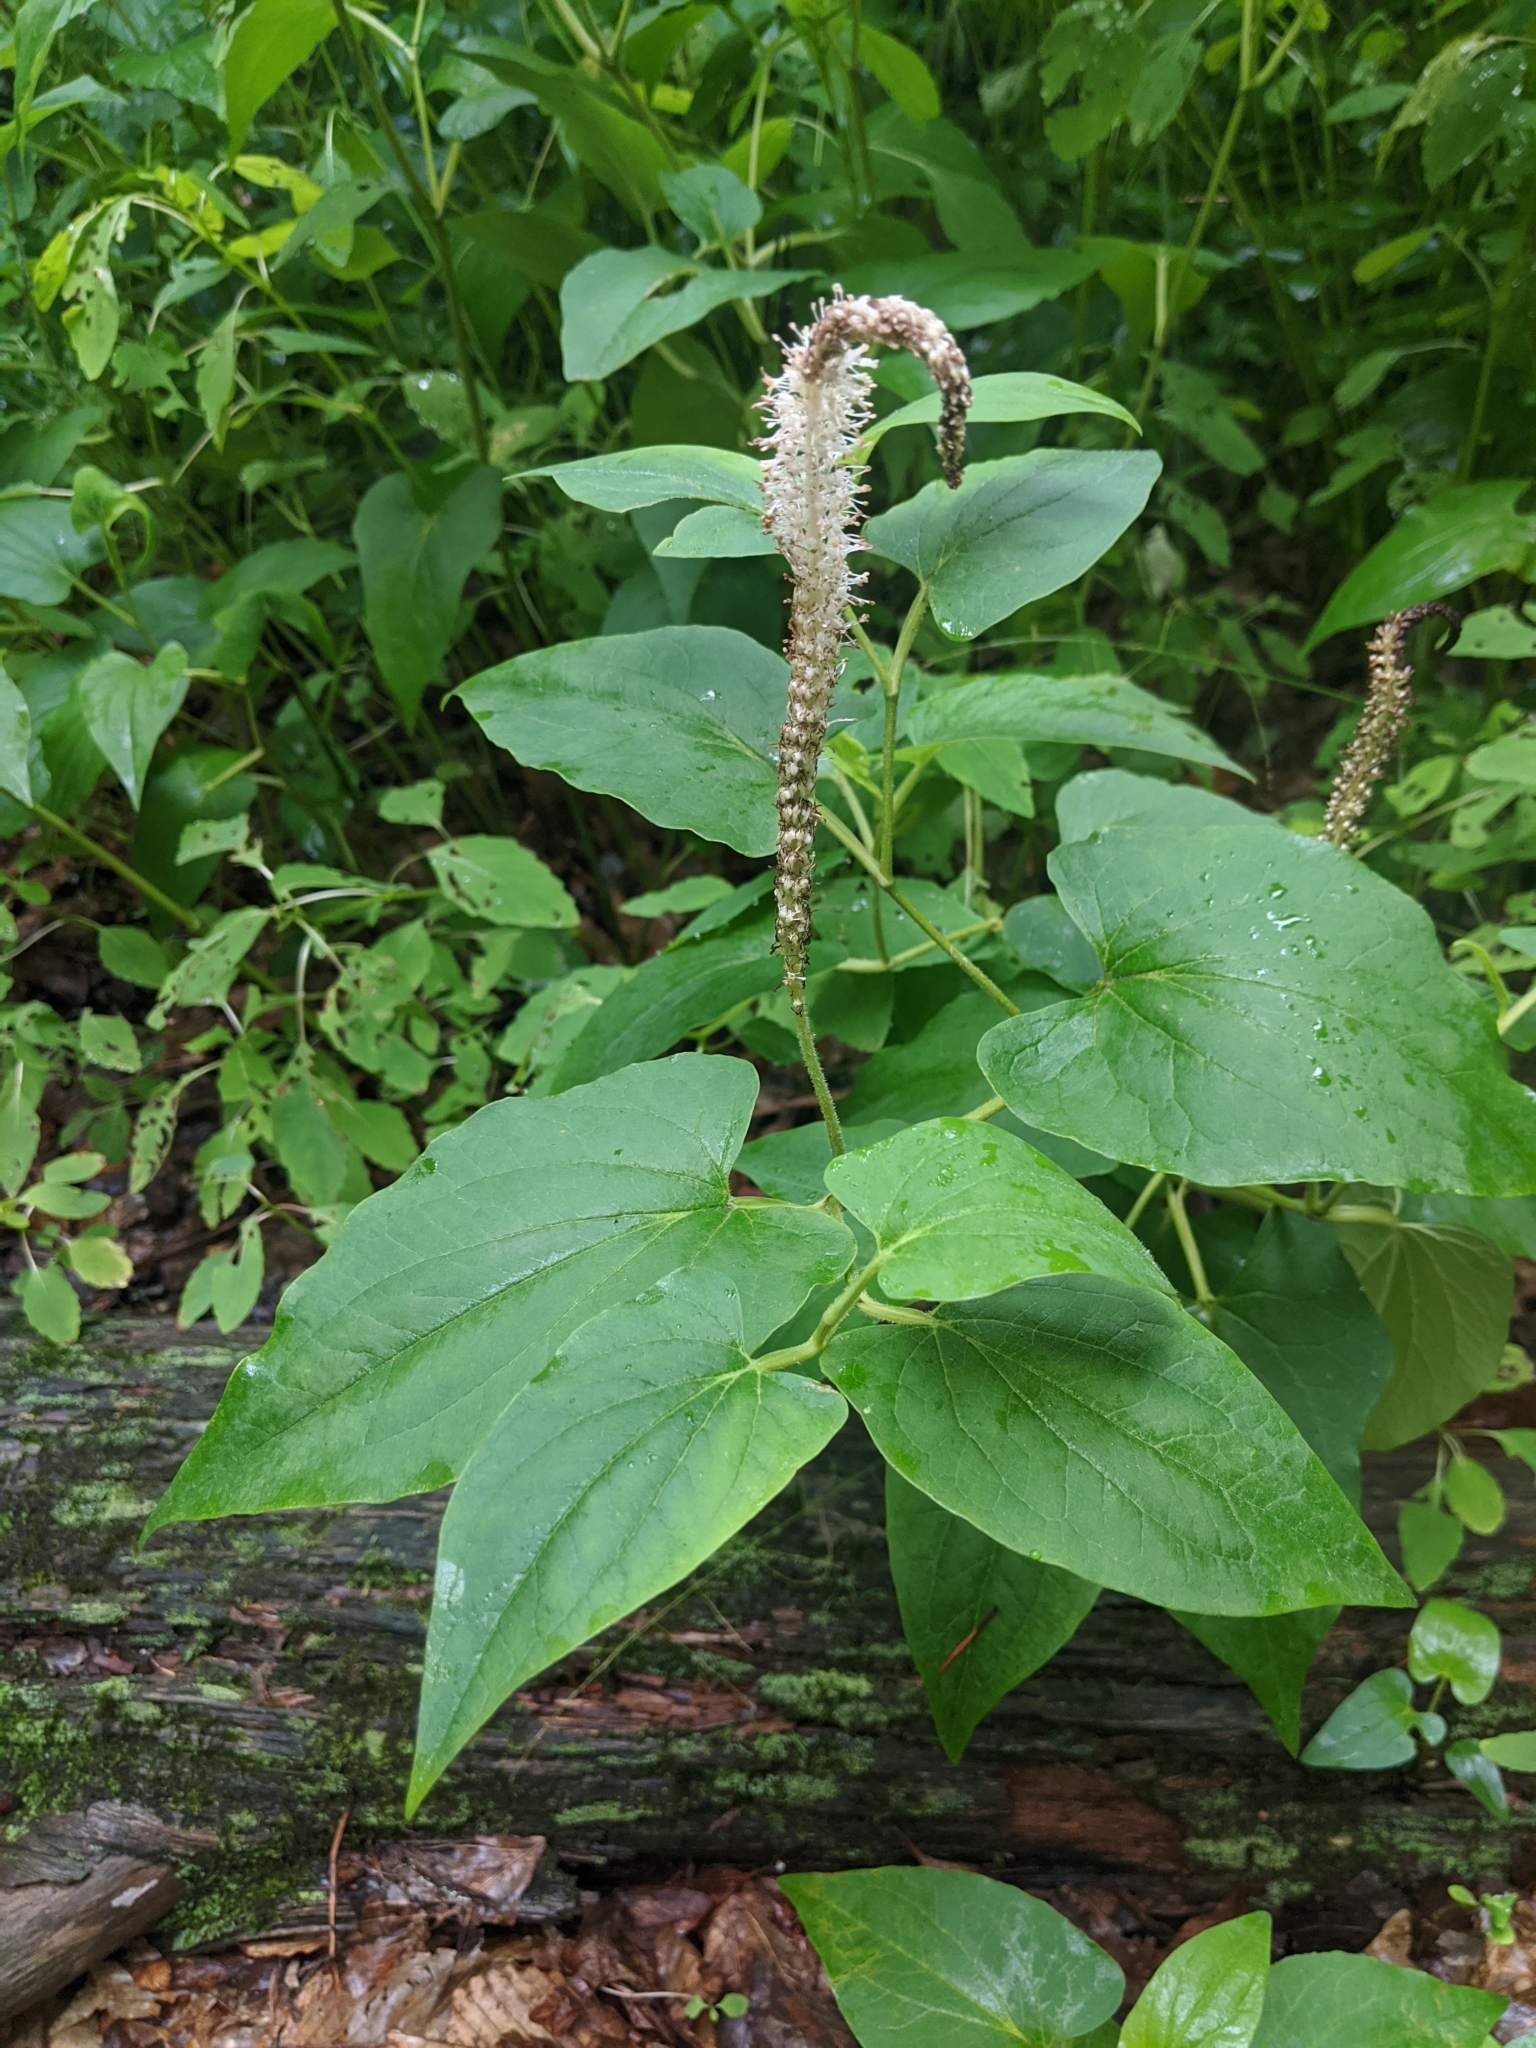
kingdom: Plantae
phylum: Tracheophyta
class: Magnoliopsida
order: Piperales
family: Saururaceae
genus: Saururus
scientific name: Saururus cernuus
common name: Lizard's-tail
